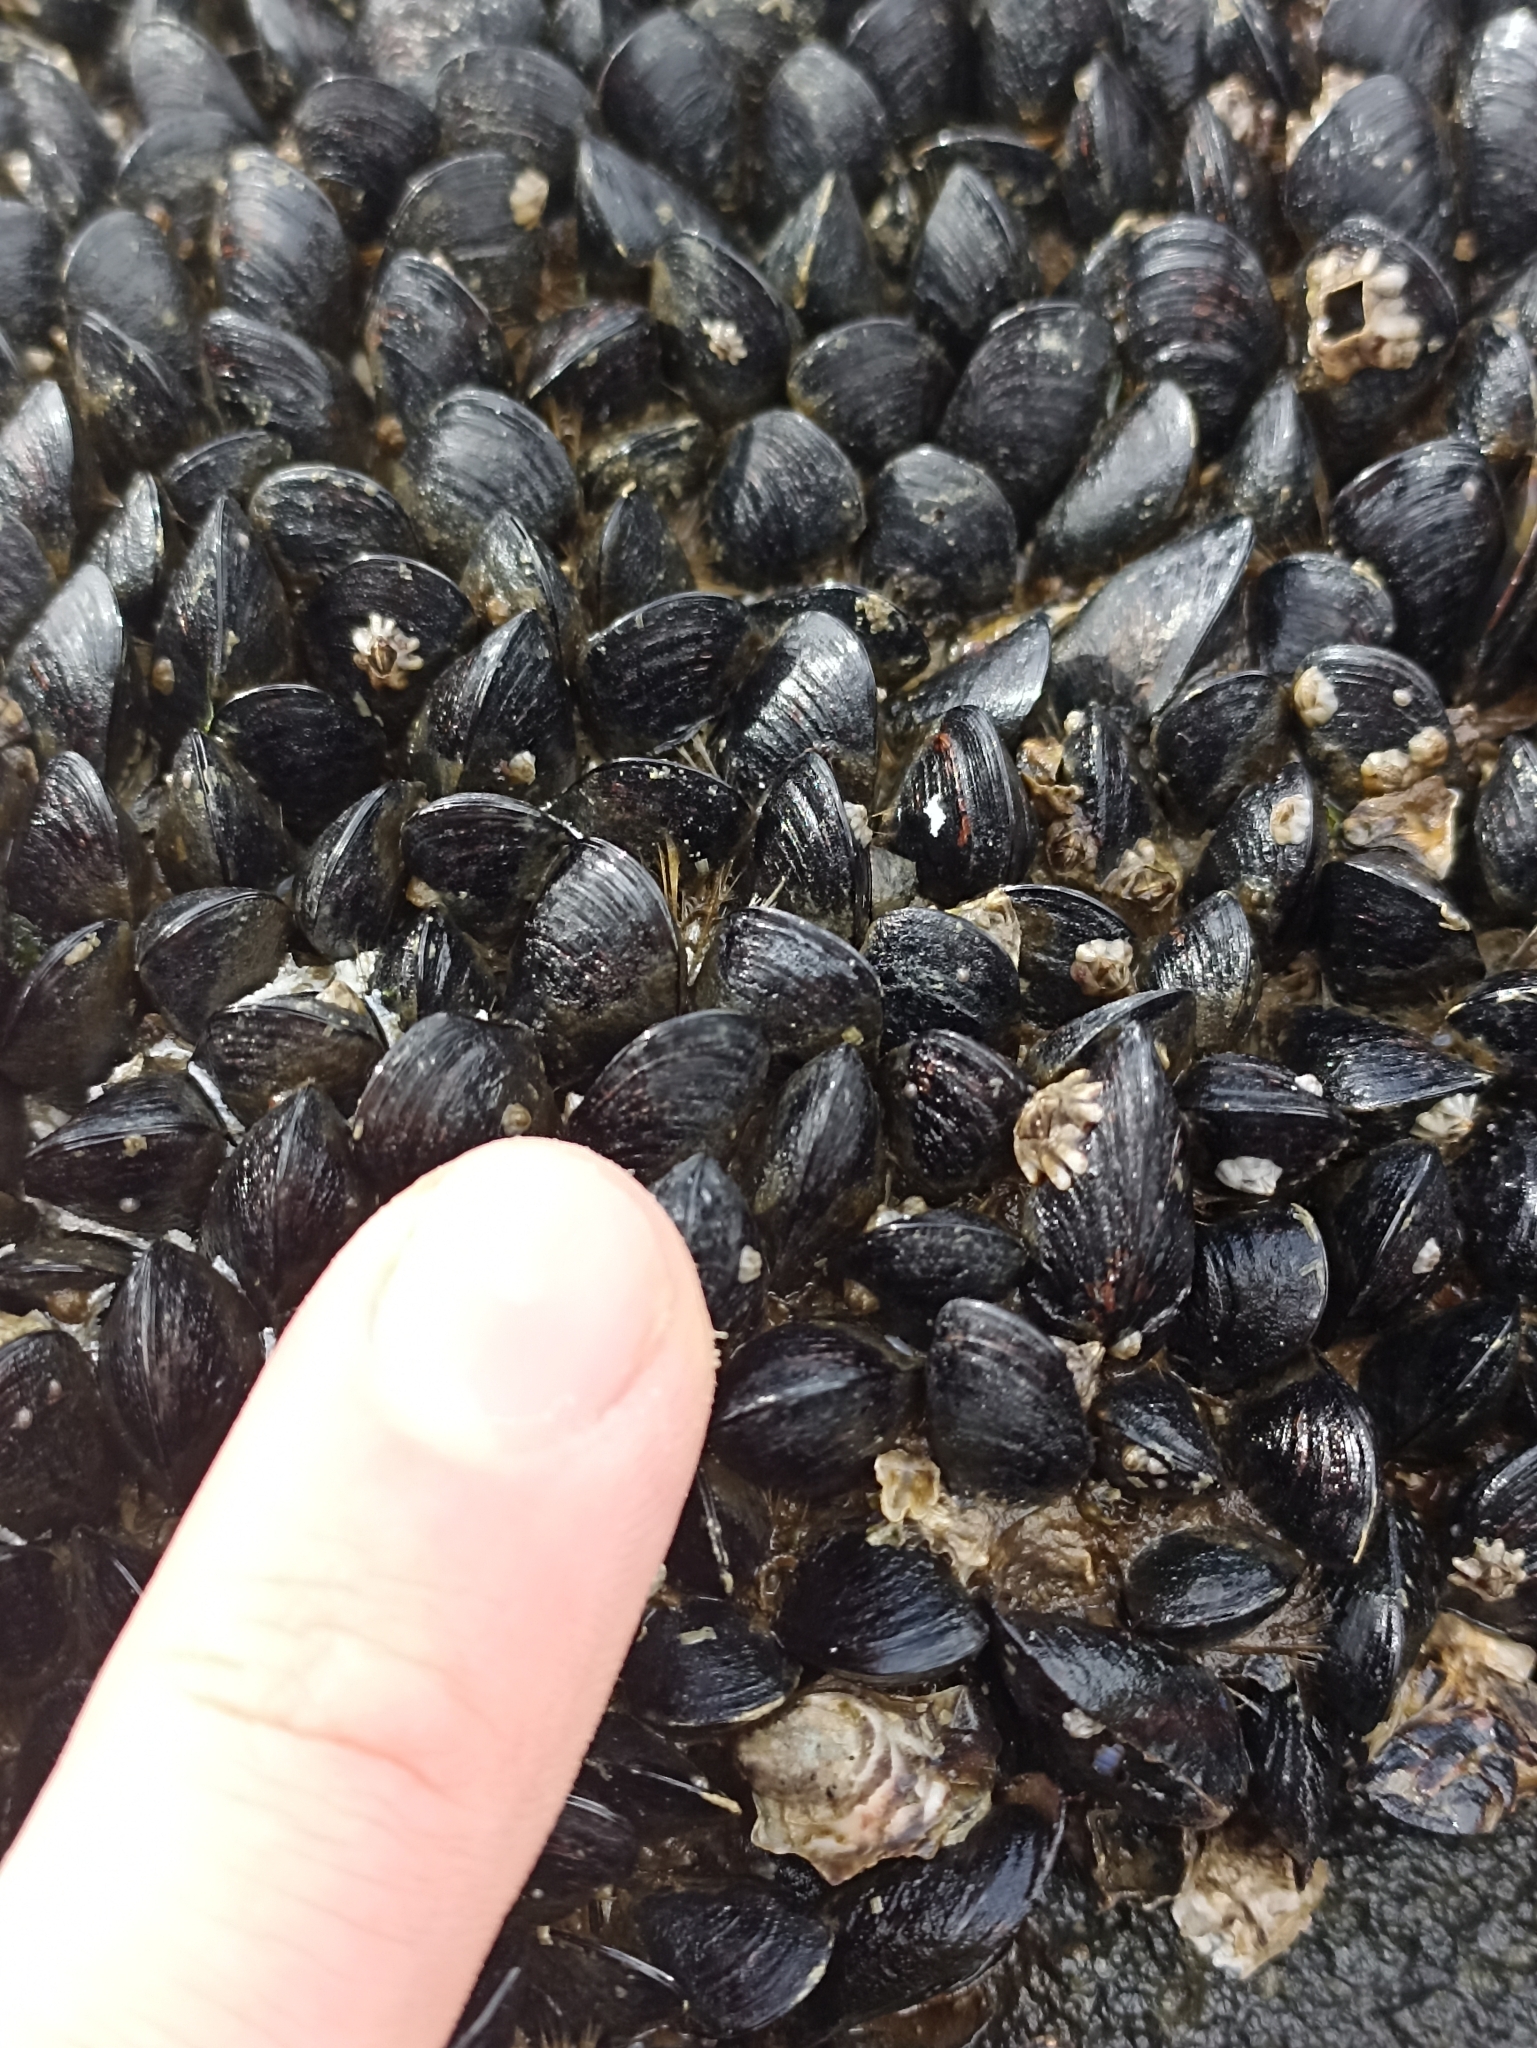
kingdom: Animalia
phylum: Mollusca
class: Bivalvia
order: Mytilida
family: Mytilidae
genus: Xenostrobus
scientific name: Xenostrobus neozelanicus
